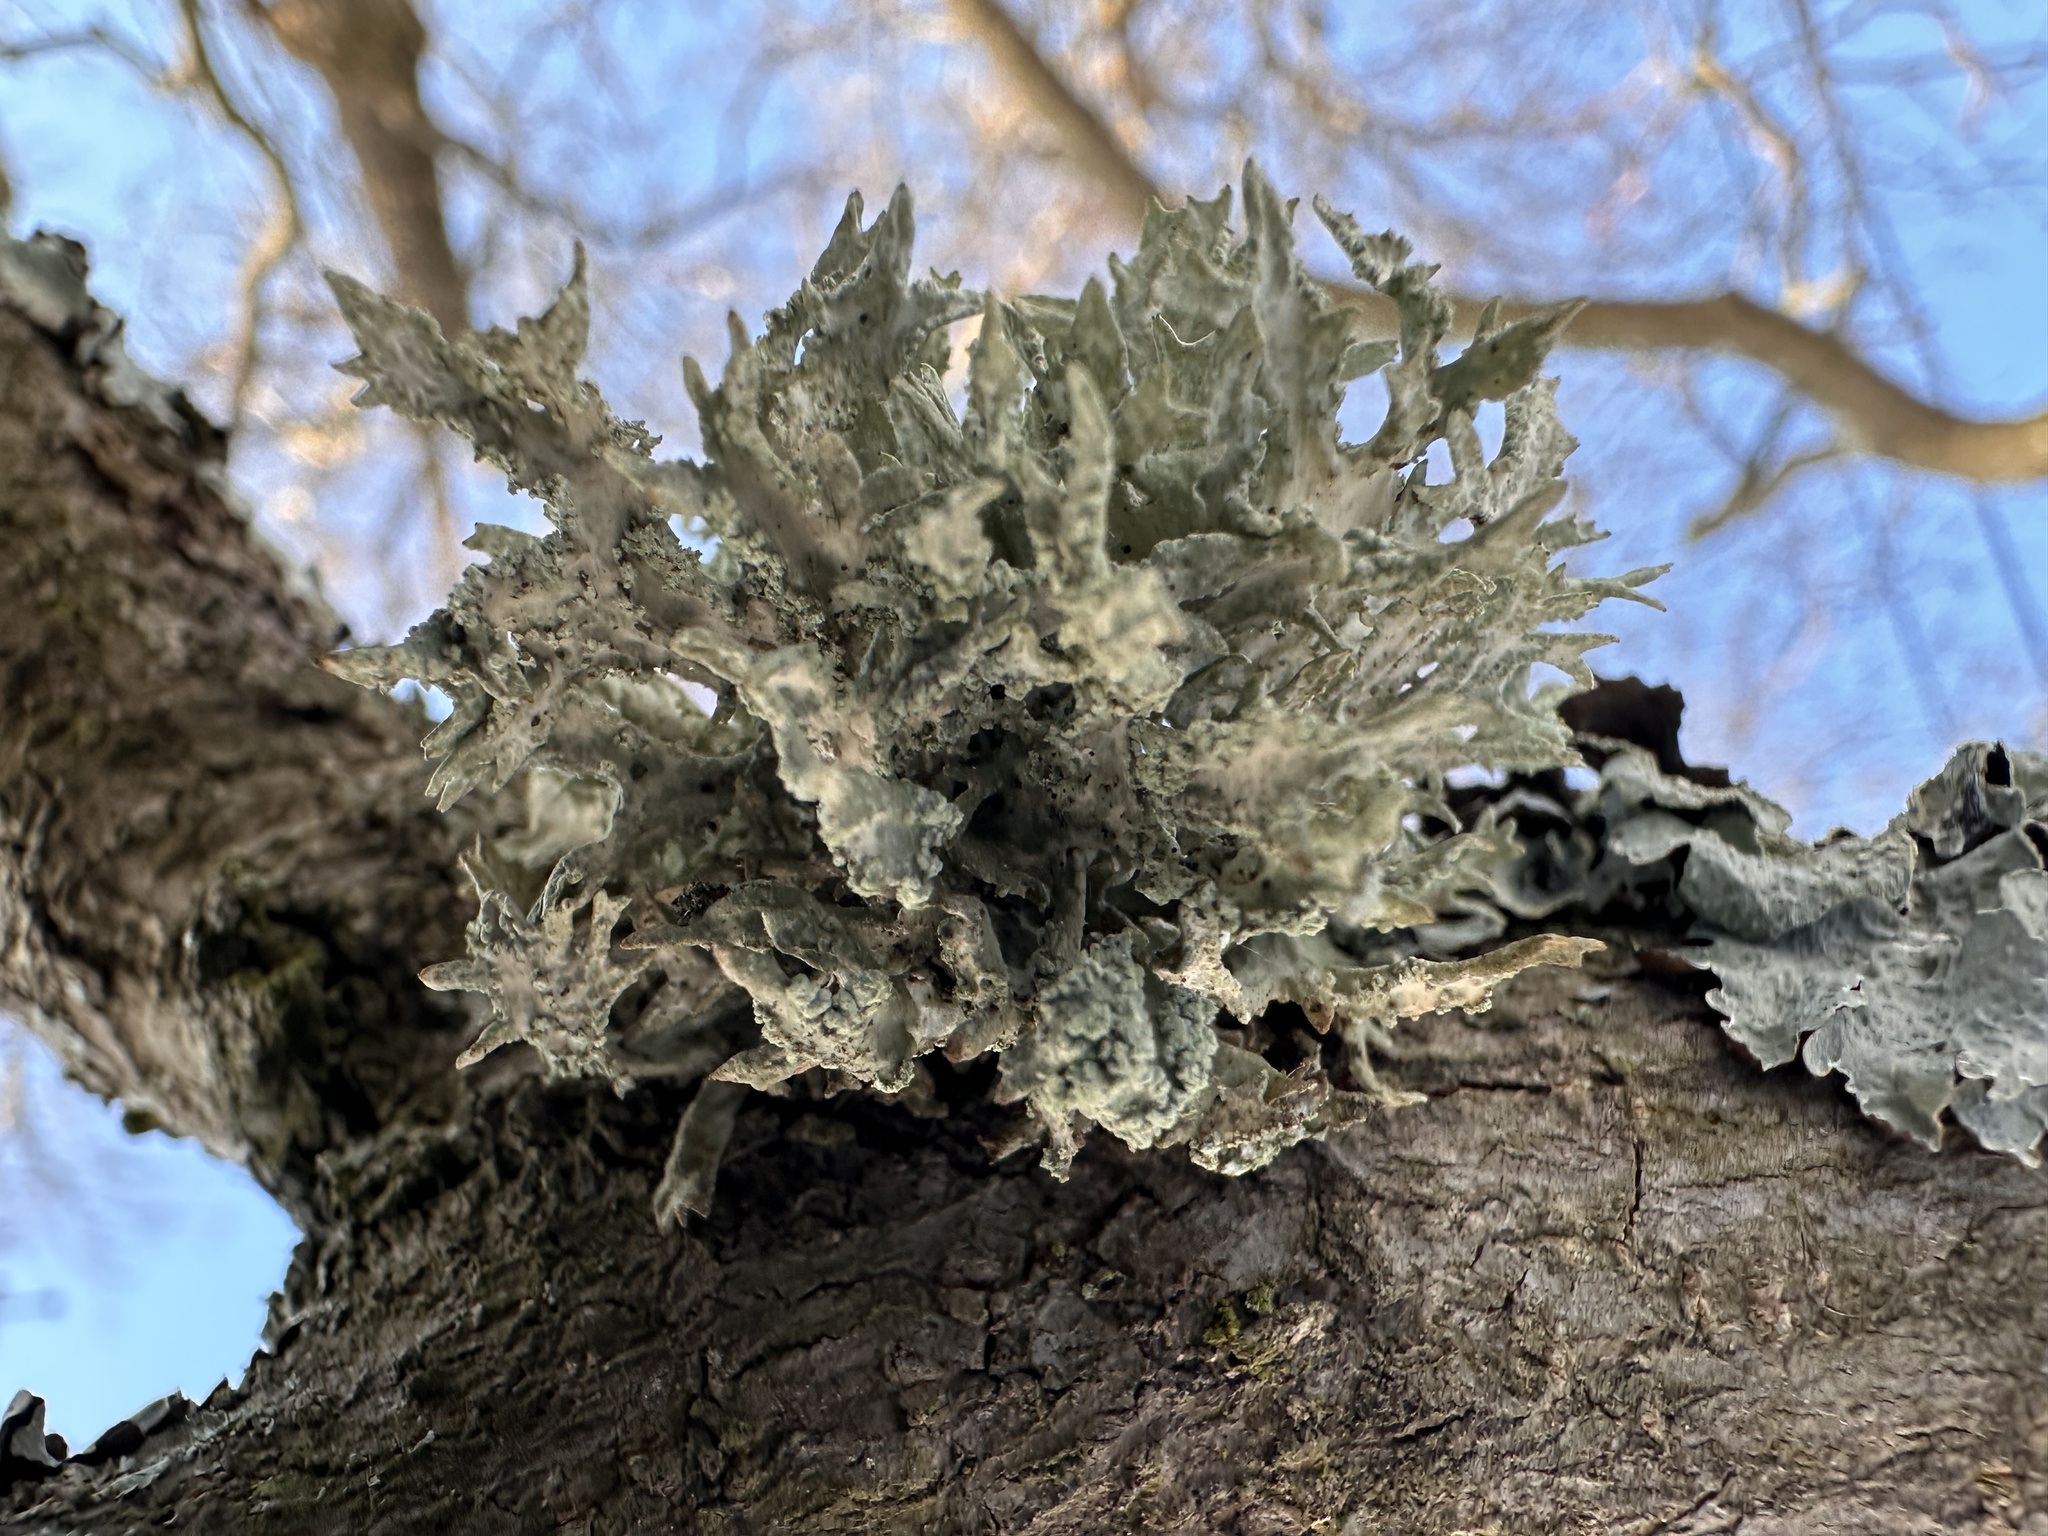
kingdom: Fungi
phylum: Ascomycota
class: Lecanoromycetes
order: Lecanorales
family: Parmeliaceae
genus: Evernia
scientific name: Evernia prunastri
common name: Oak moss
